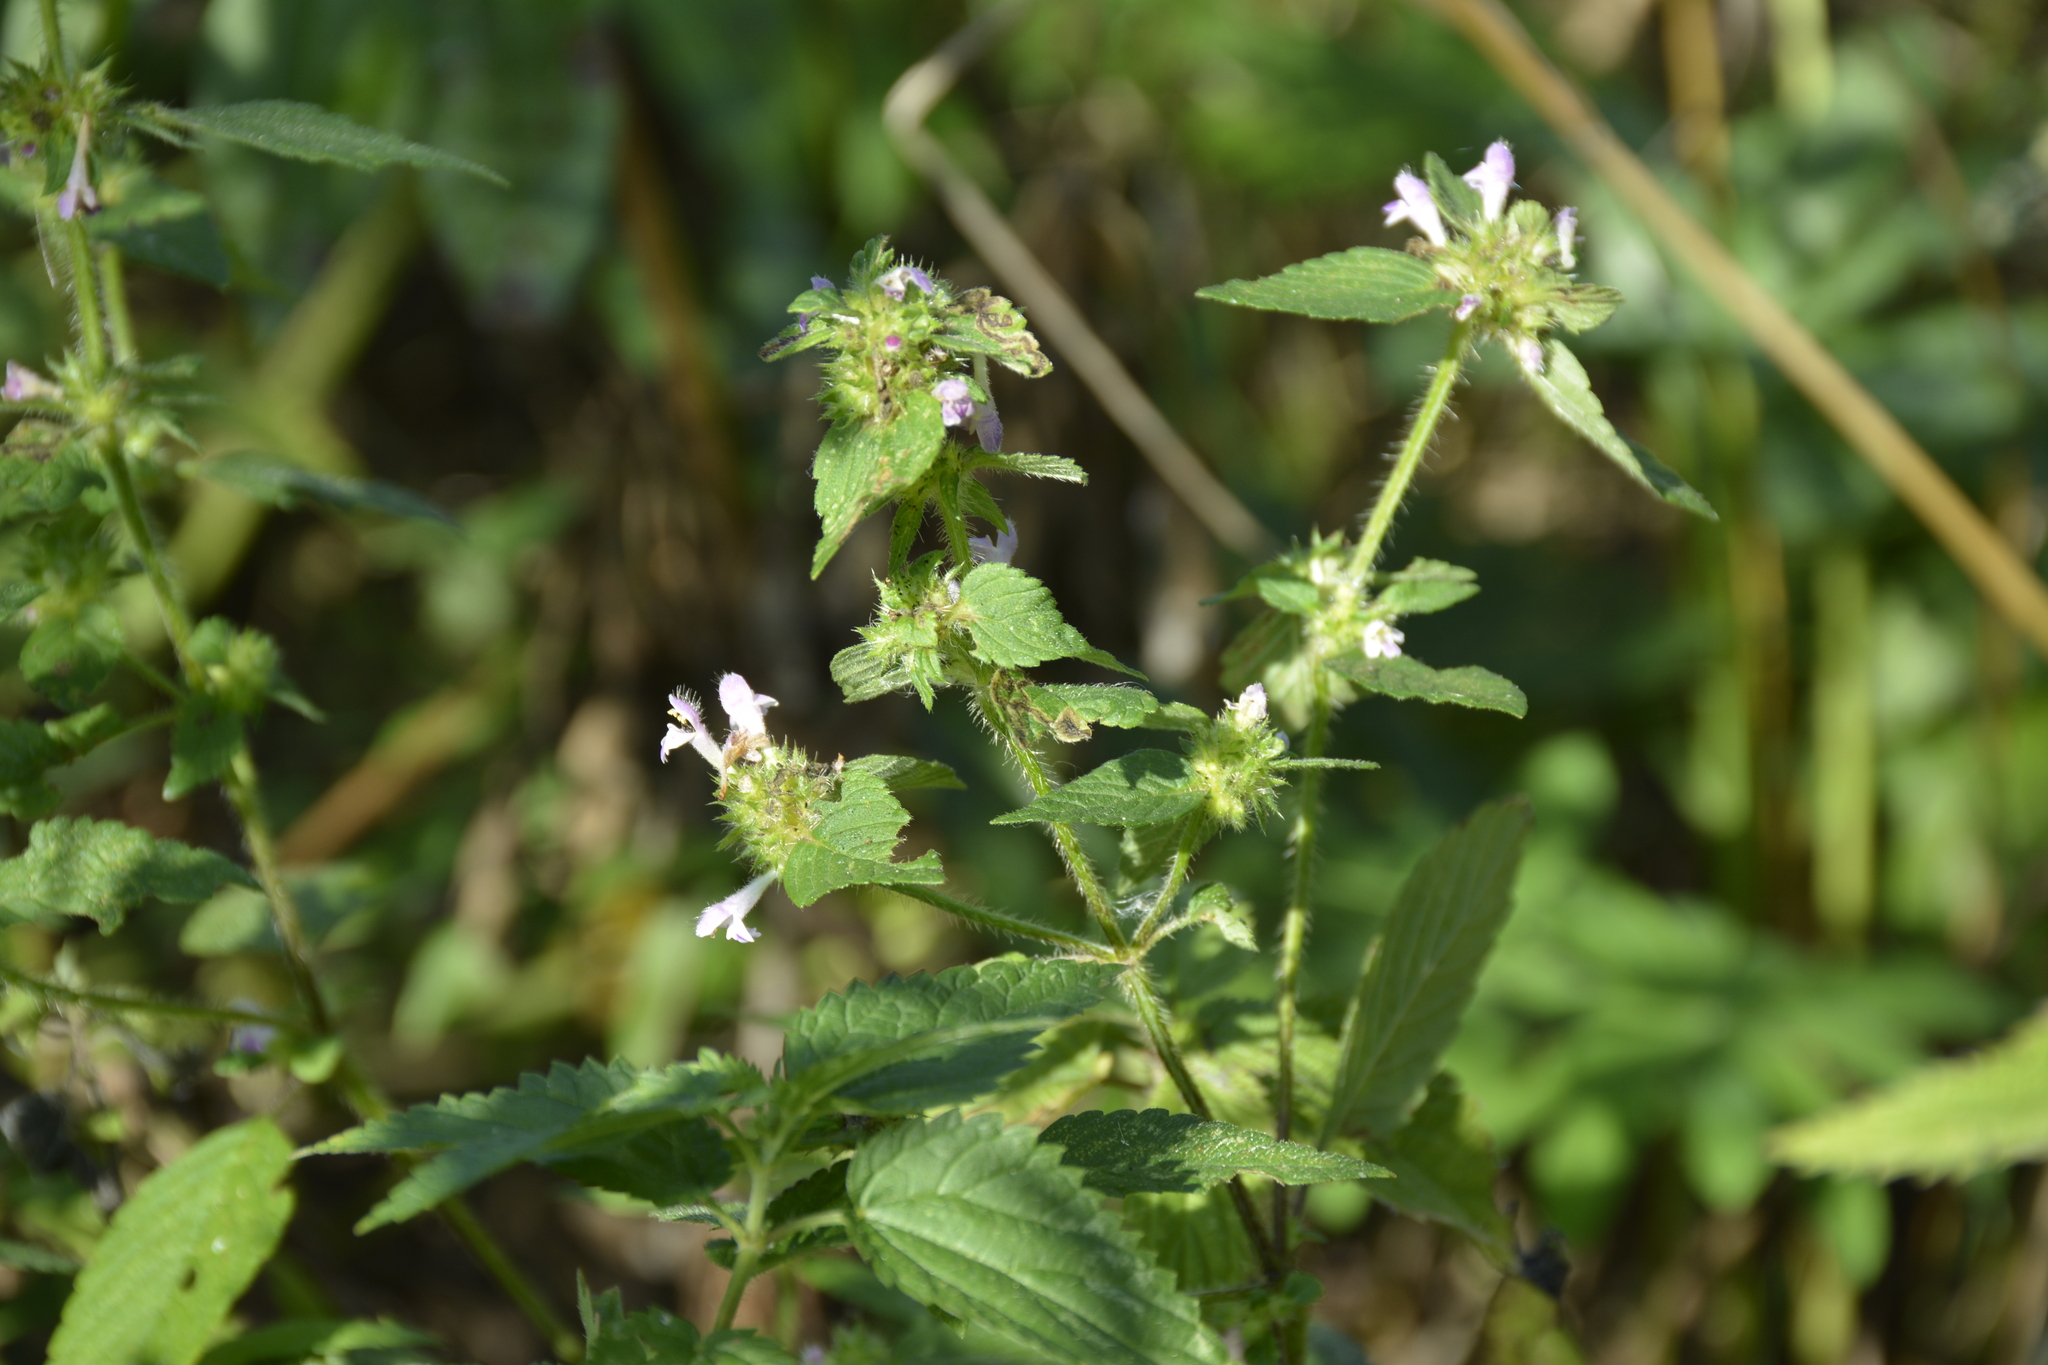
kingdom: Plantae
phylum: Tracheophyta
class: Magnoliopsida
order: Lamiales
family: Lamiaceae
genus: Galeopsis
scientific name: Galeopsis tetrahit
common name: Common hemp-nettle
